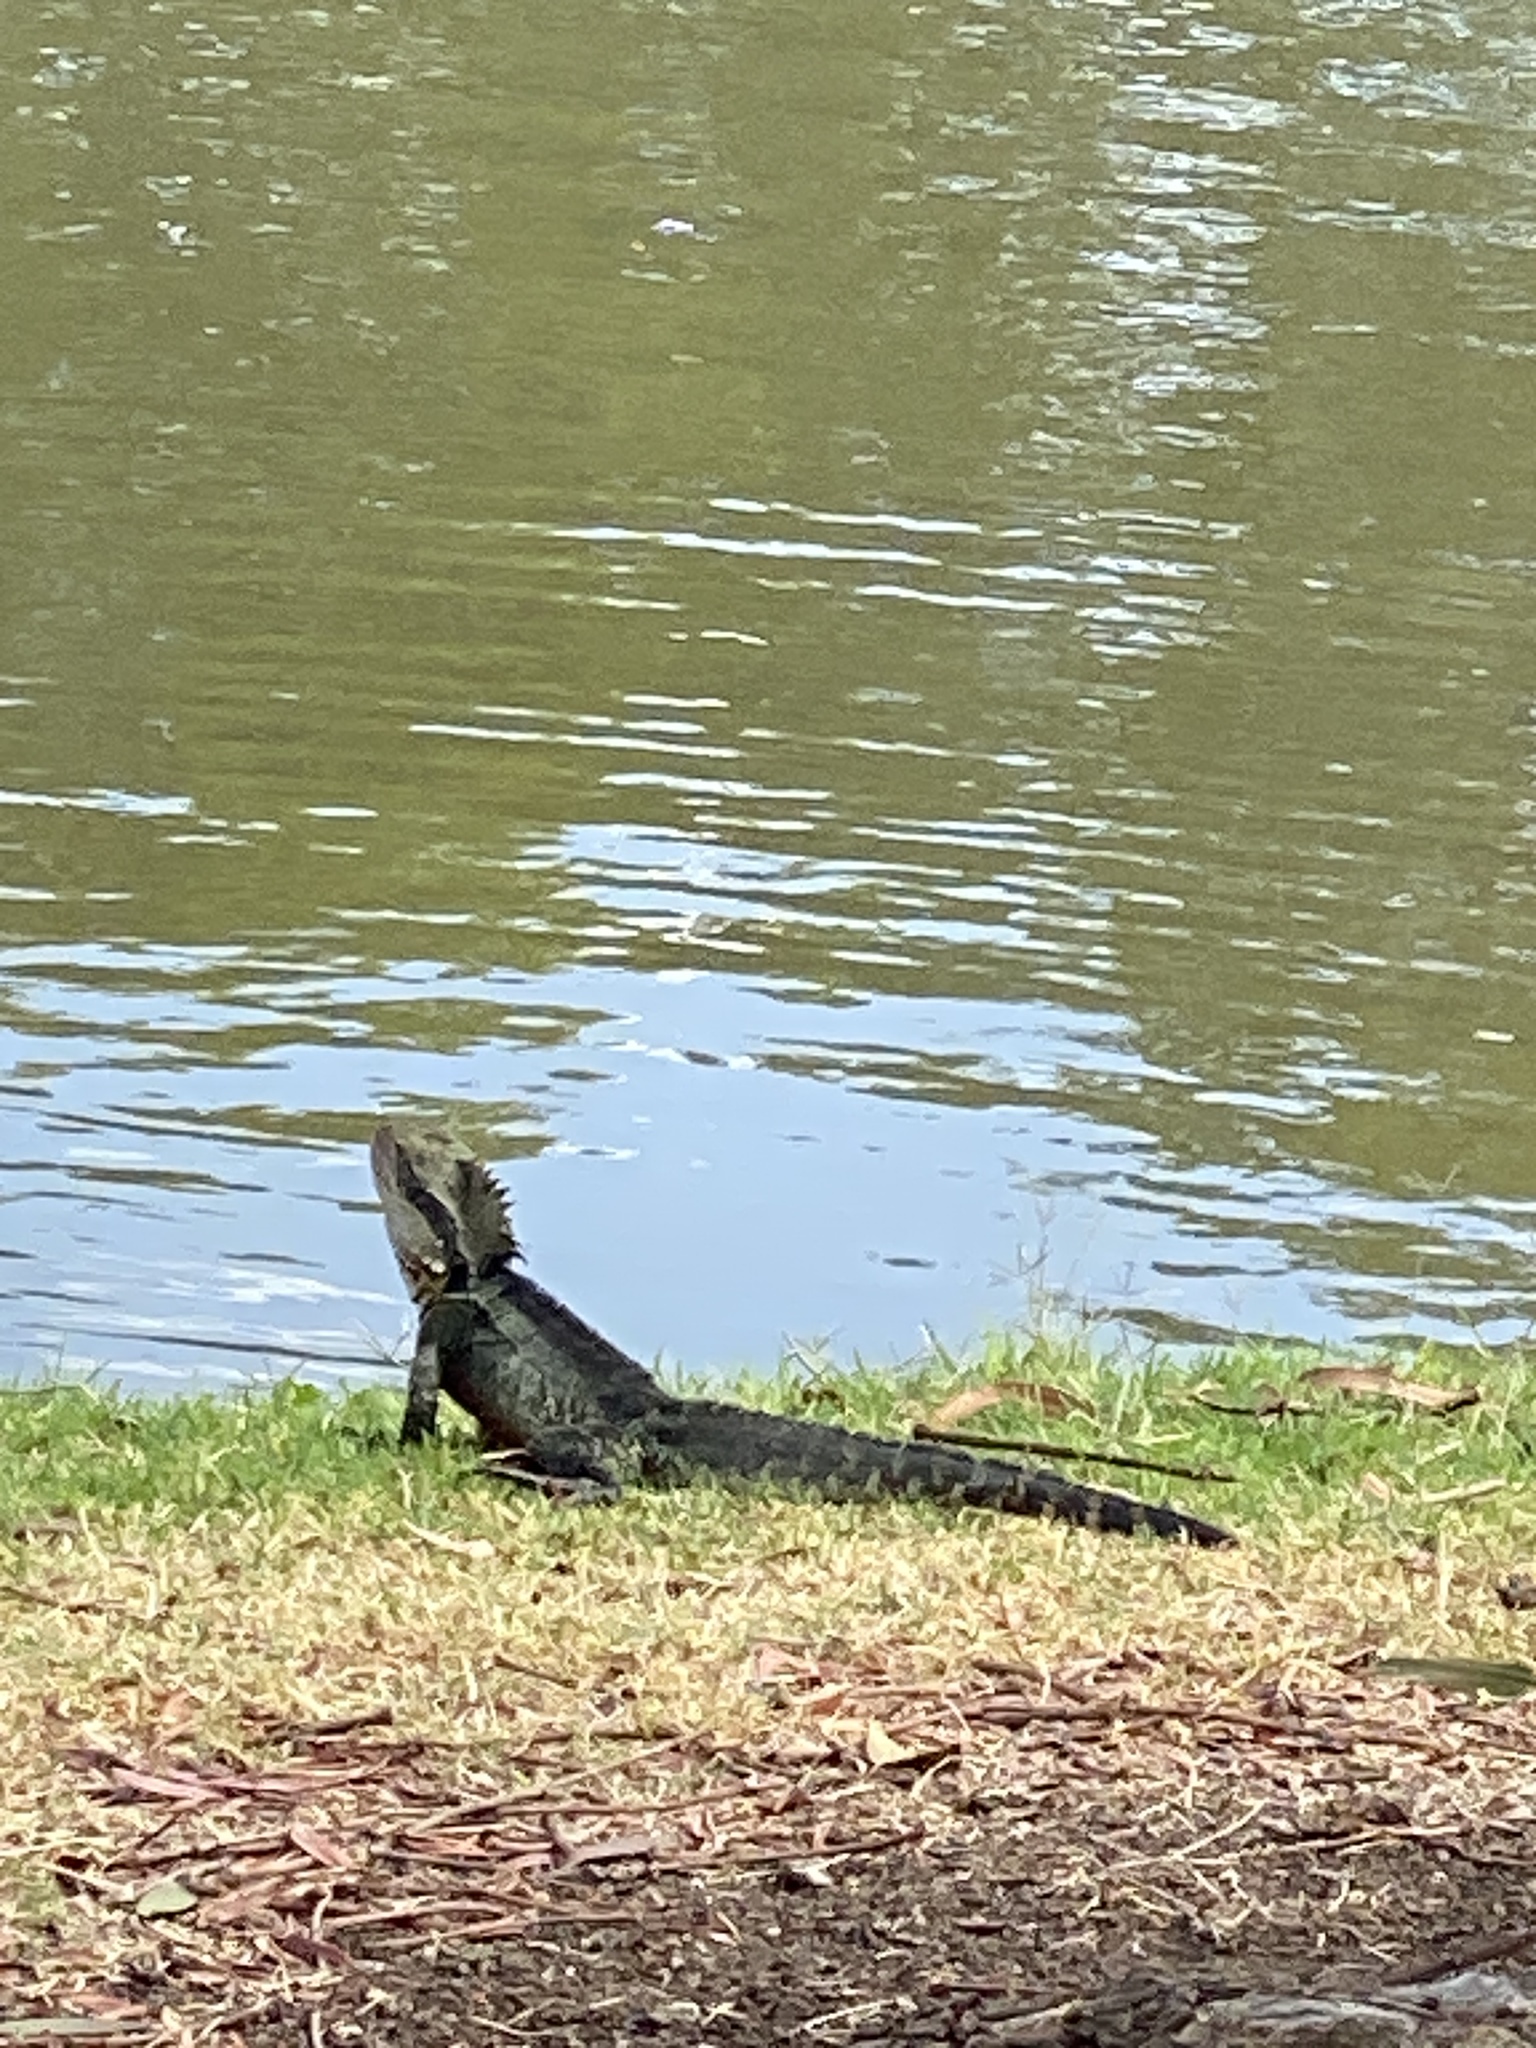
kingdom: Animalia
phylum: Chordata
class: Squamata
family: Agamidae
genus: Intellagama
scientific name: Intellagama lesueurii
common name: Eastern water dragon
